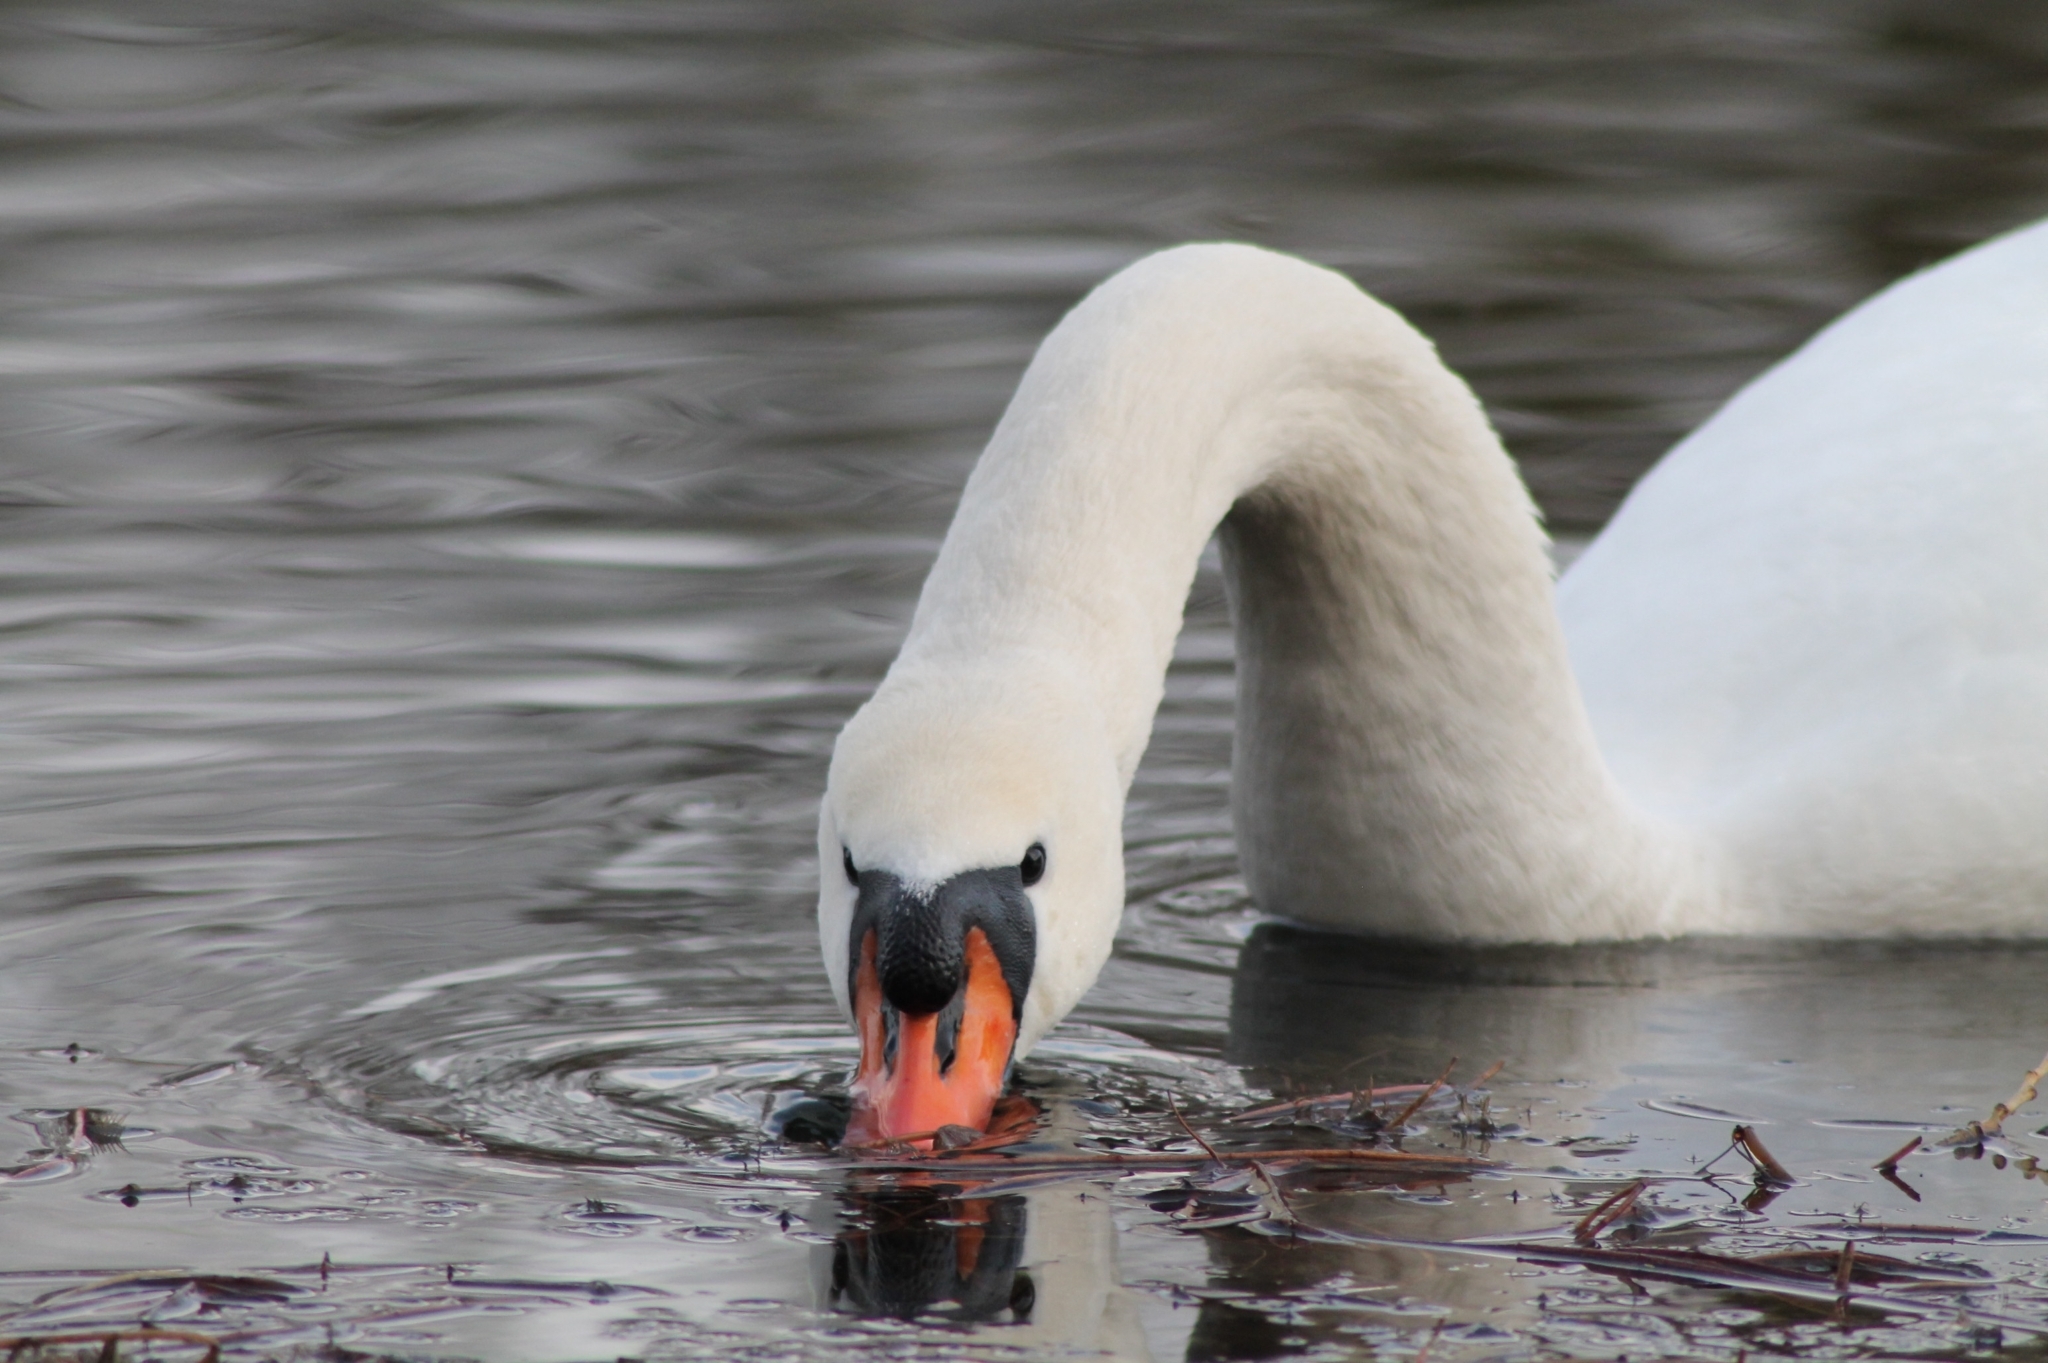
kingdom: Animalia
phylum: Chordata
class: Aves
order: Anseriformes
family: Anatidae
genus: Cygnus
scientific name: Cygnus olor
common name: Mute swan
